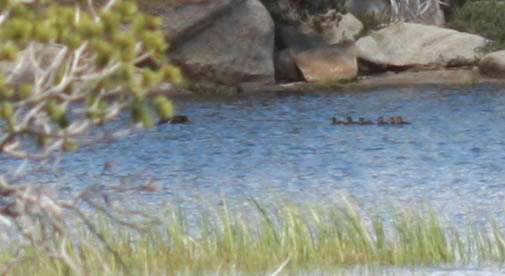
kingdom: Animalia
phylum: Chordata
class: Aves
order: Anseriformes
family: Anatidae
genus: Anas
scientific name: Anas platyrhynchos
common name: Mallard
